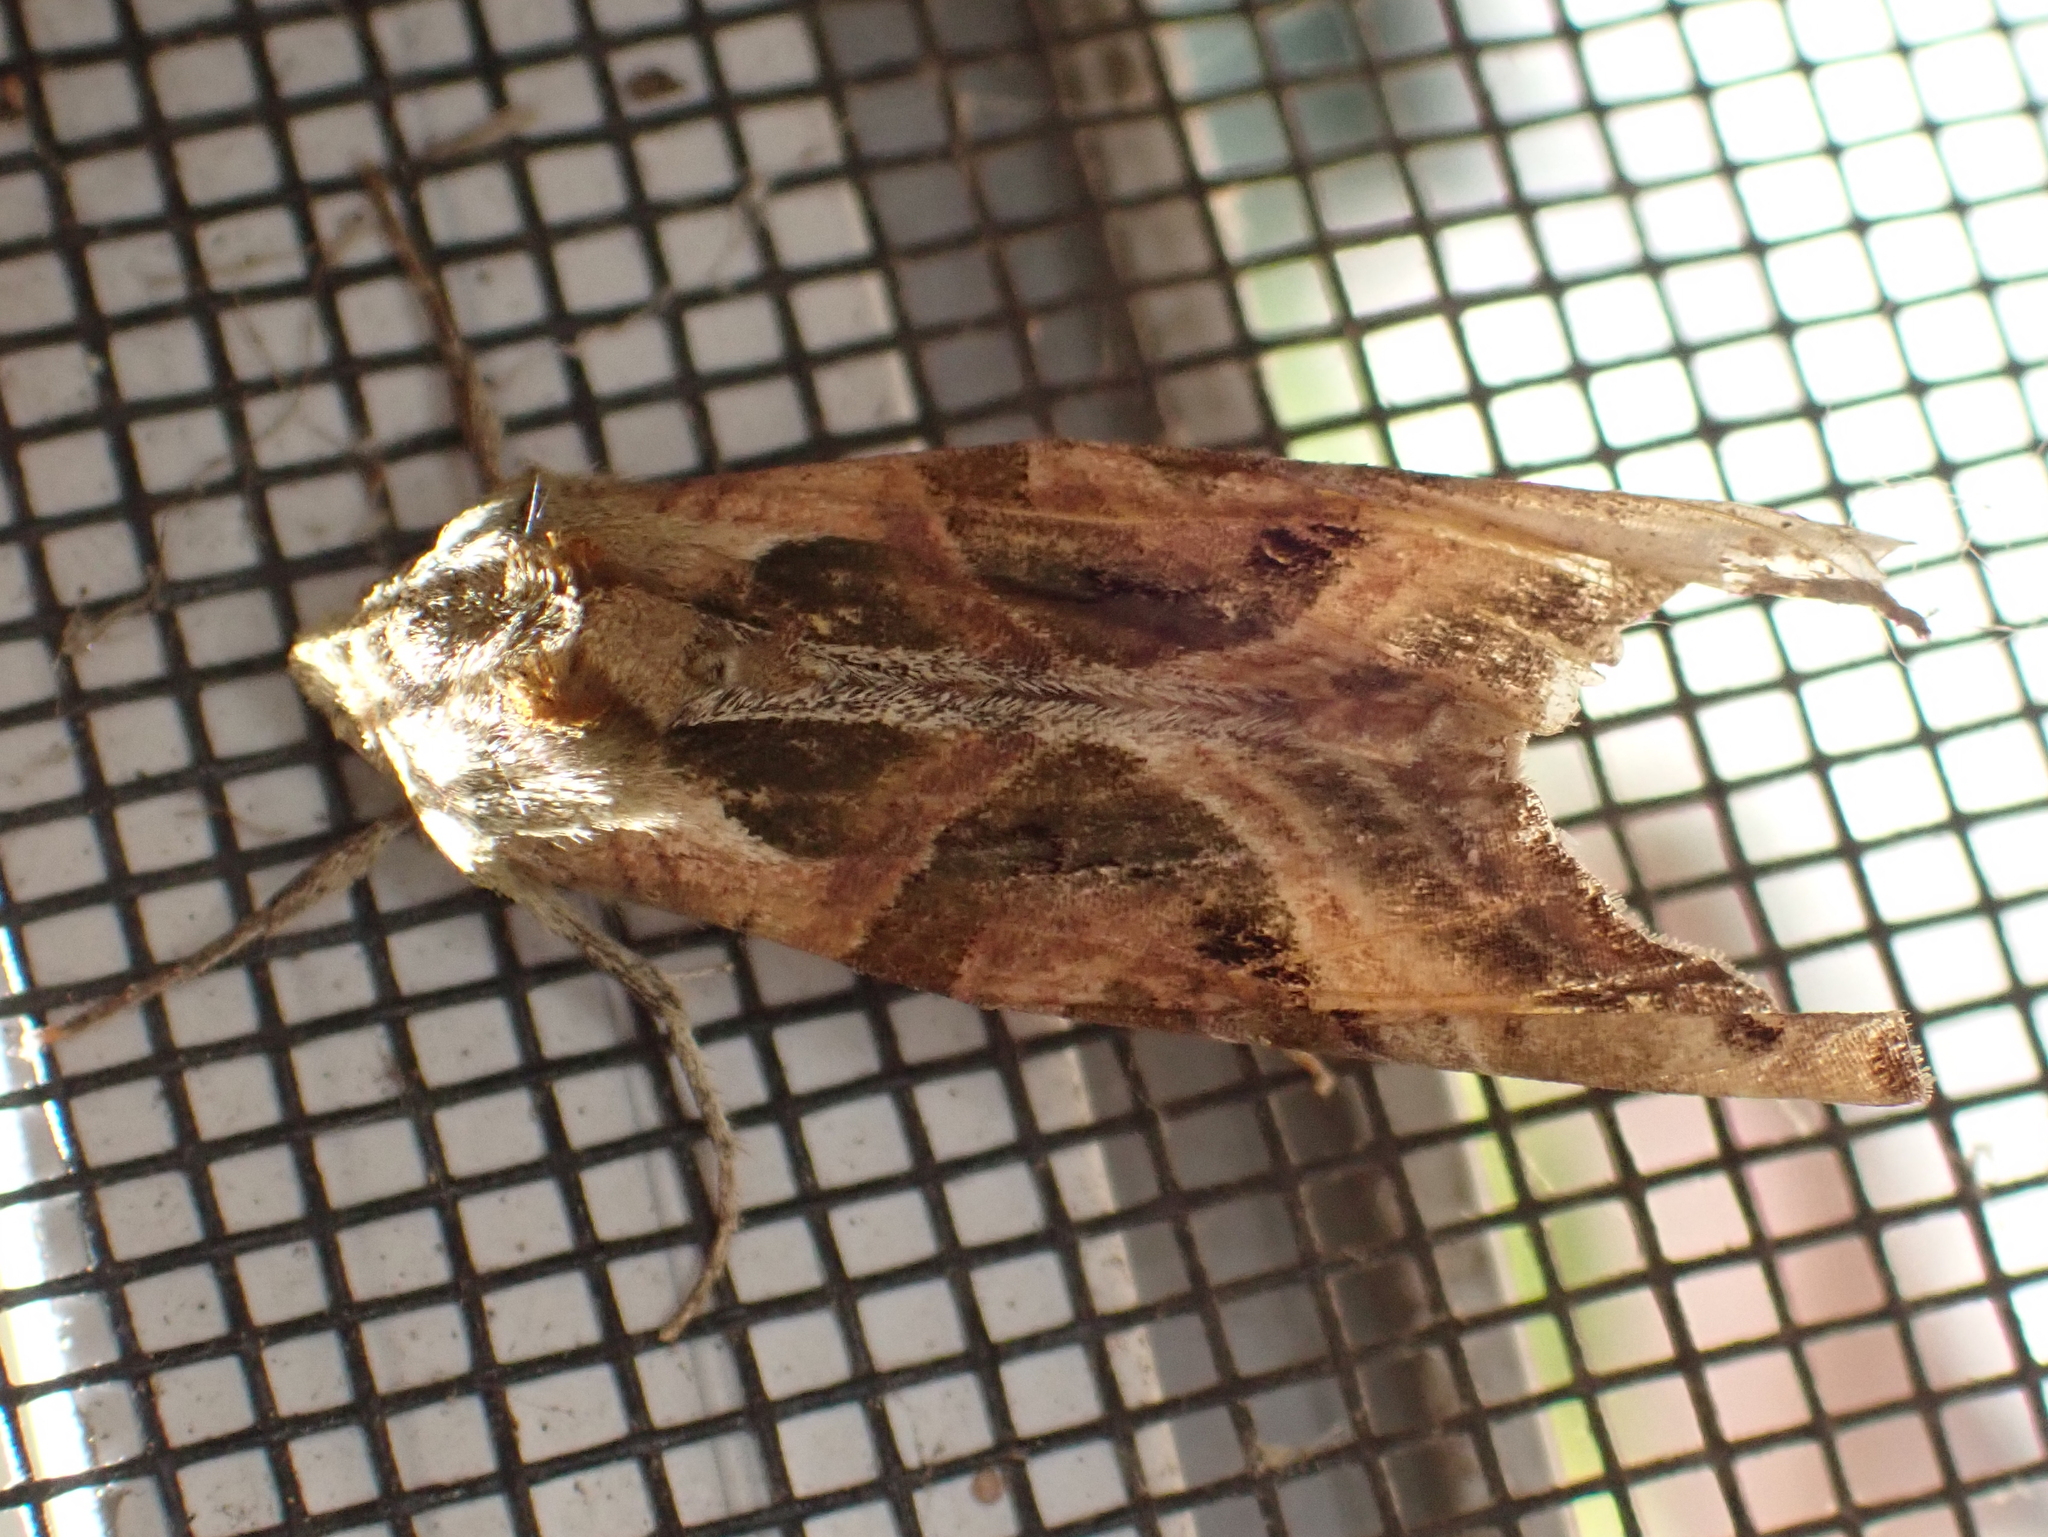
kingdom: Animalia
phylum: Arthropoda
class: Insecta
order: Lepidoptera
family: Noctuidae
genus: Phlogophora
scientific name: Phlogophora iris
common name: Olive angle shades
